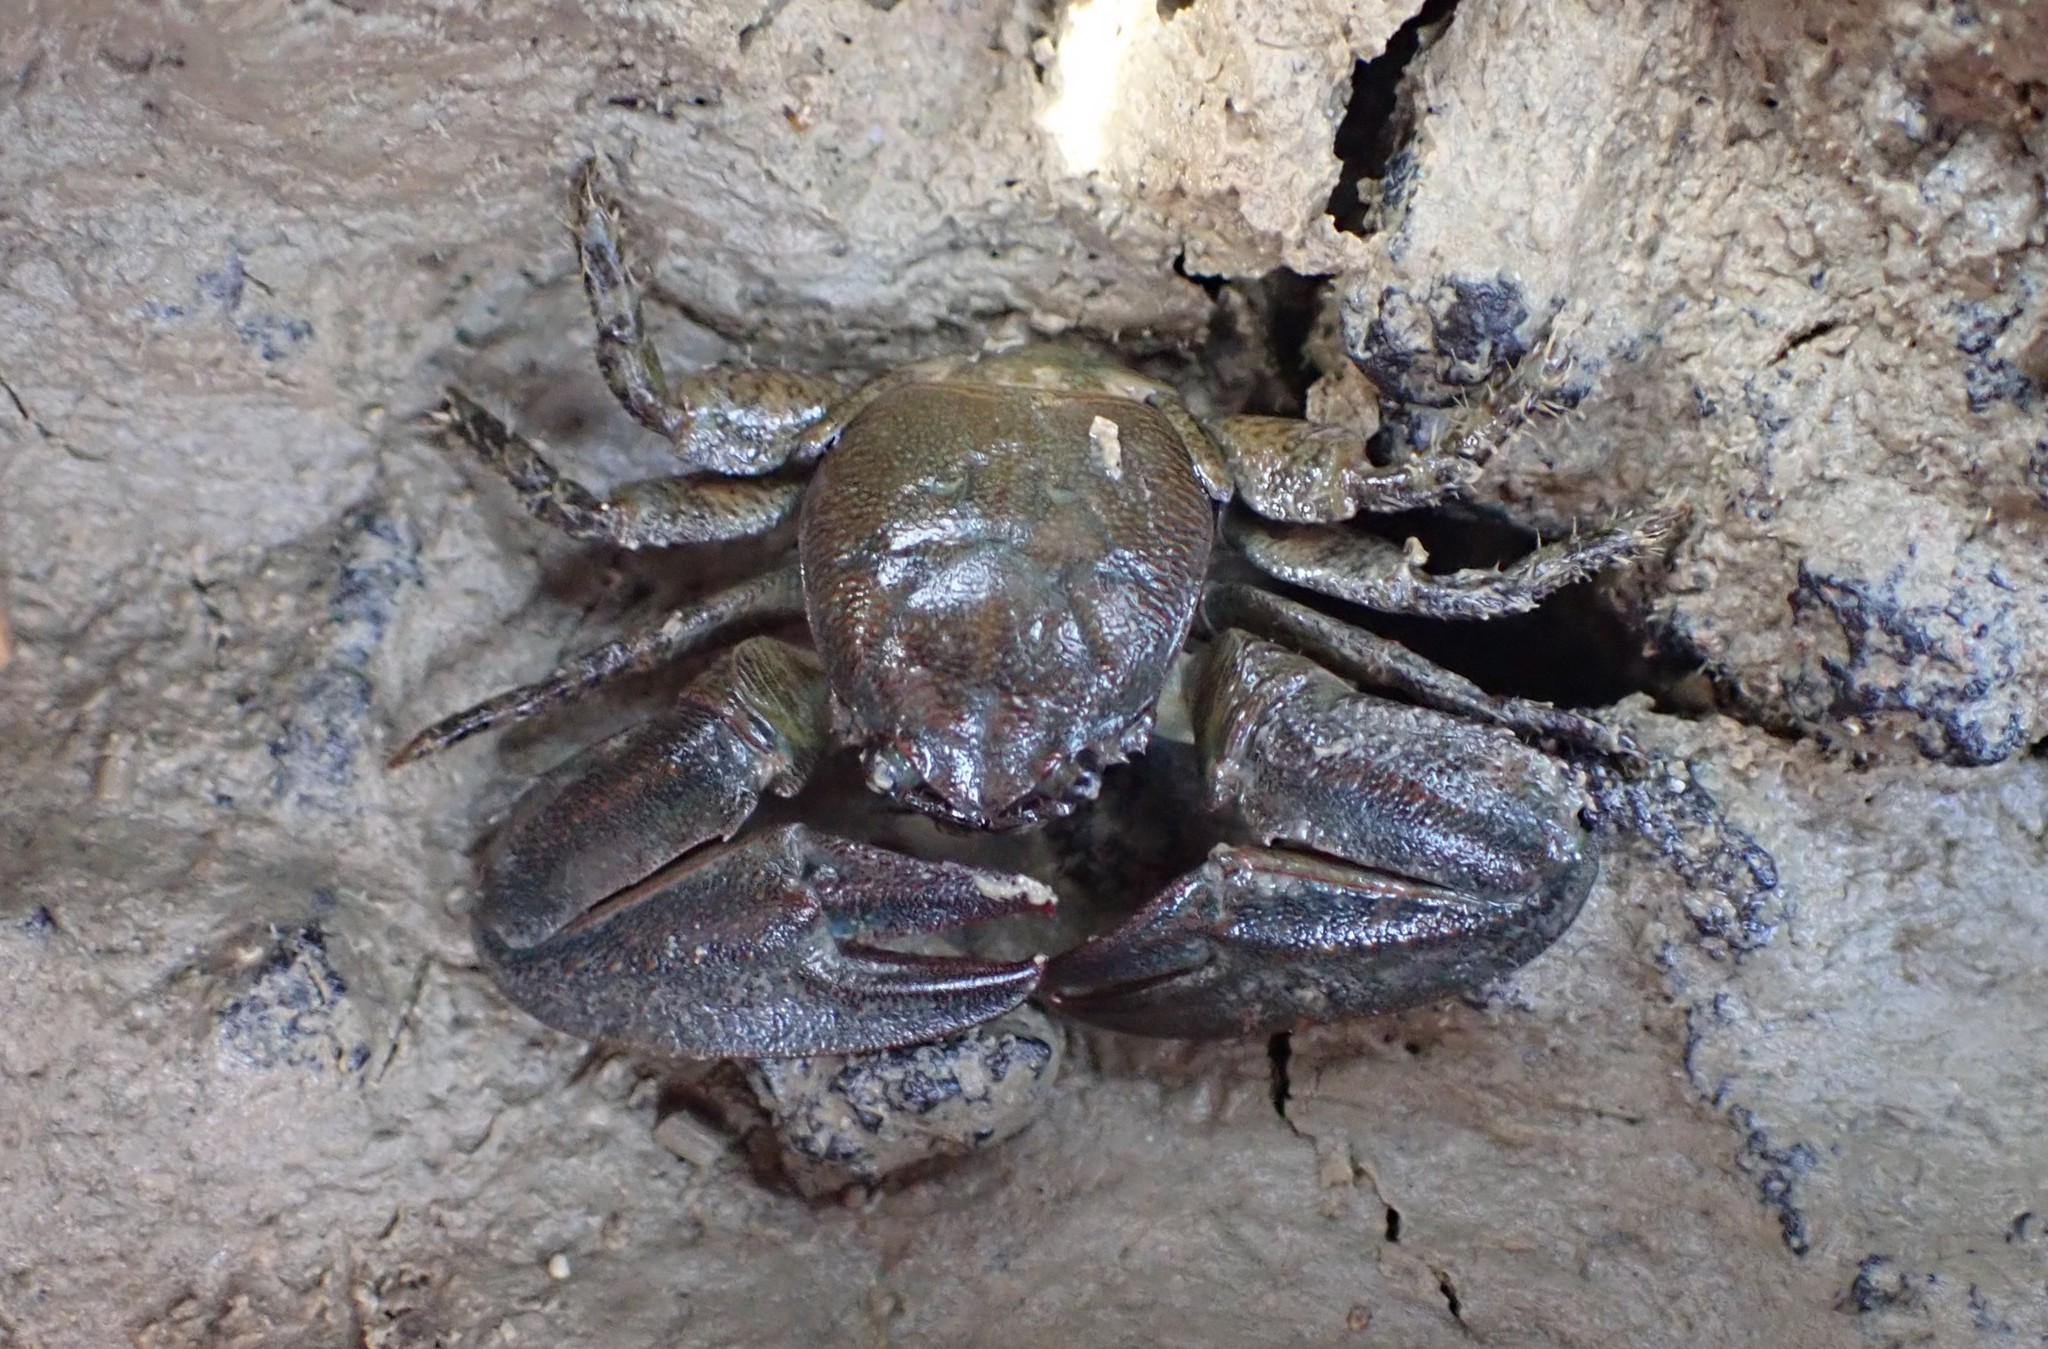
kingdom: Animalia
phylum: Arthropoda
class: Malacostraca
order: Decapoda
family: Porcellanidae
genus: Petrolisthes
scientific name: Petrolisthes elongatus
